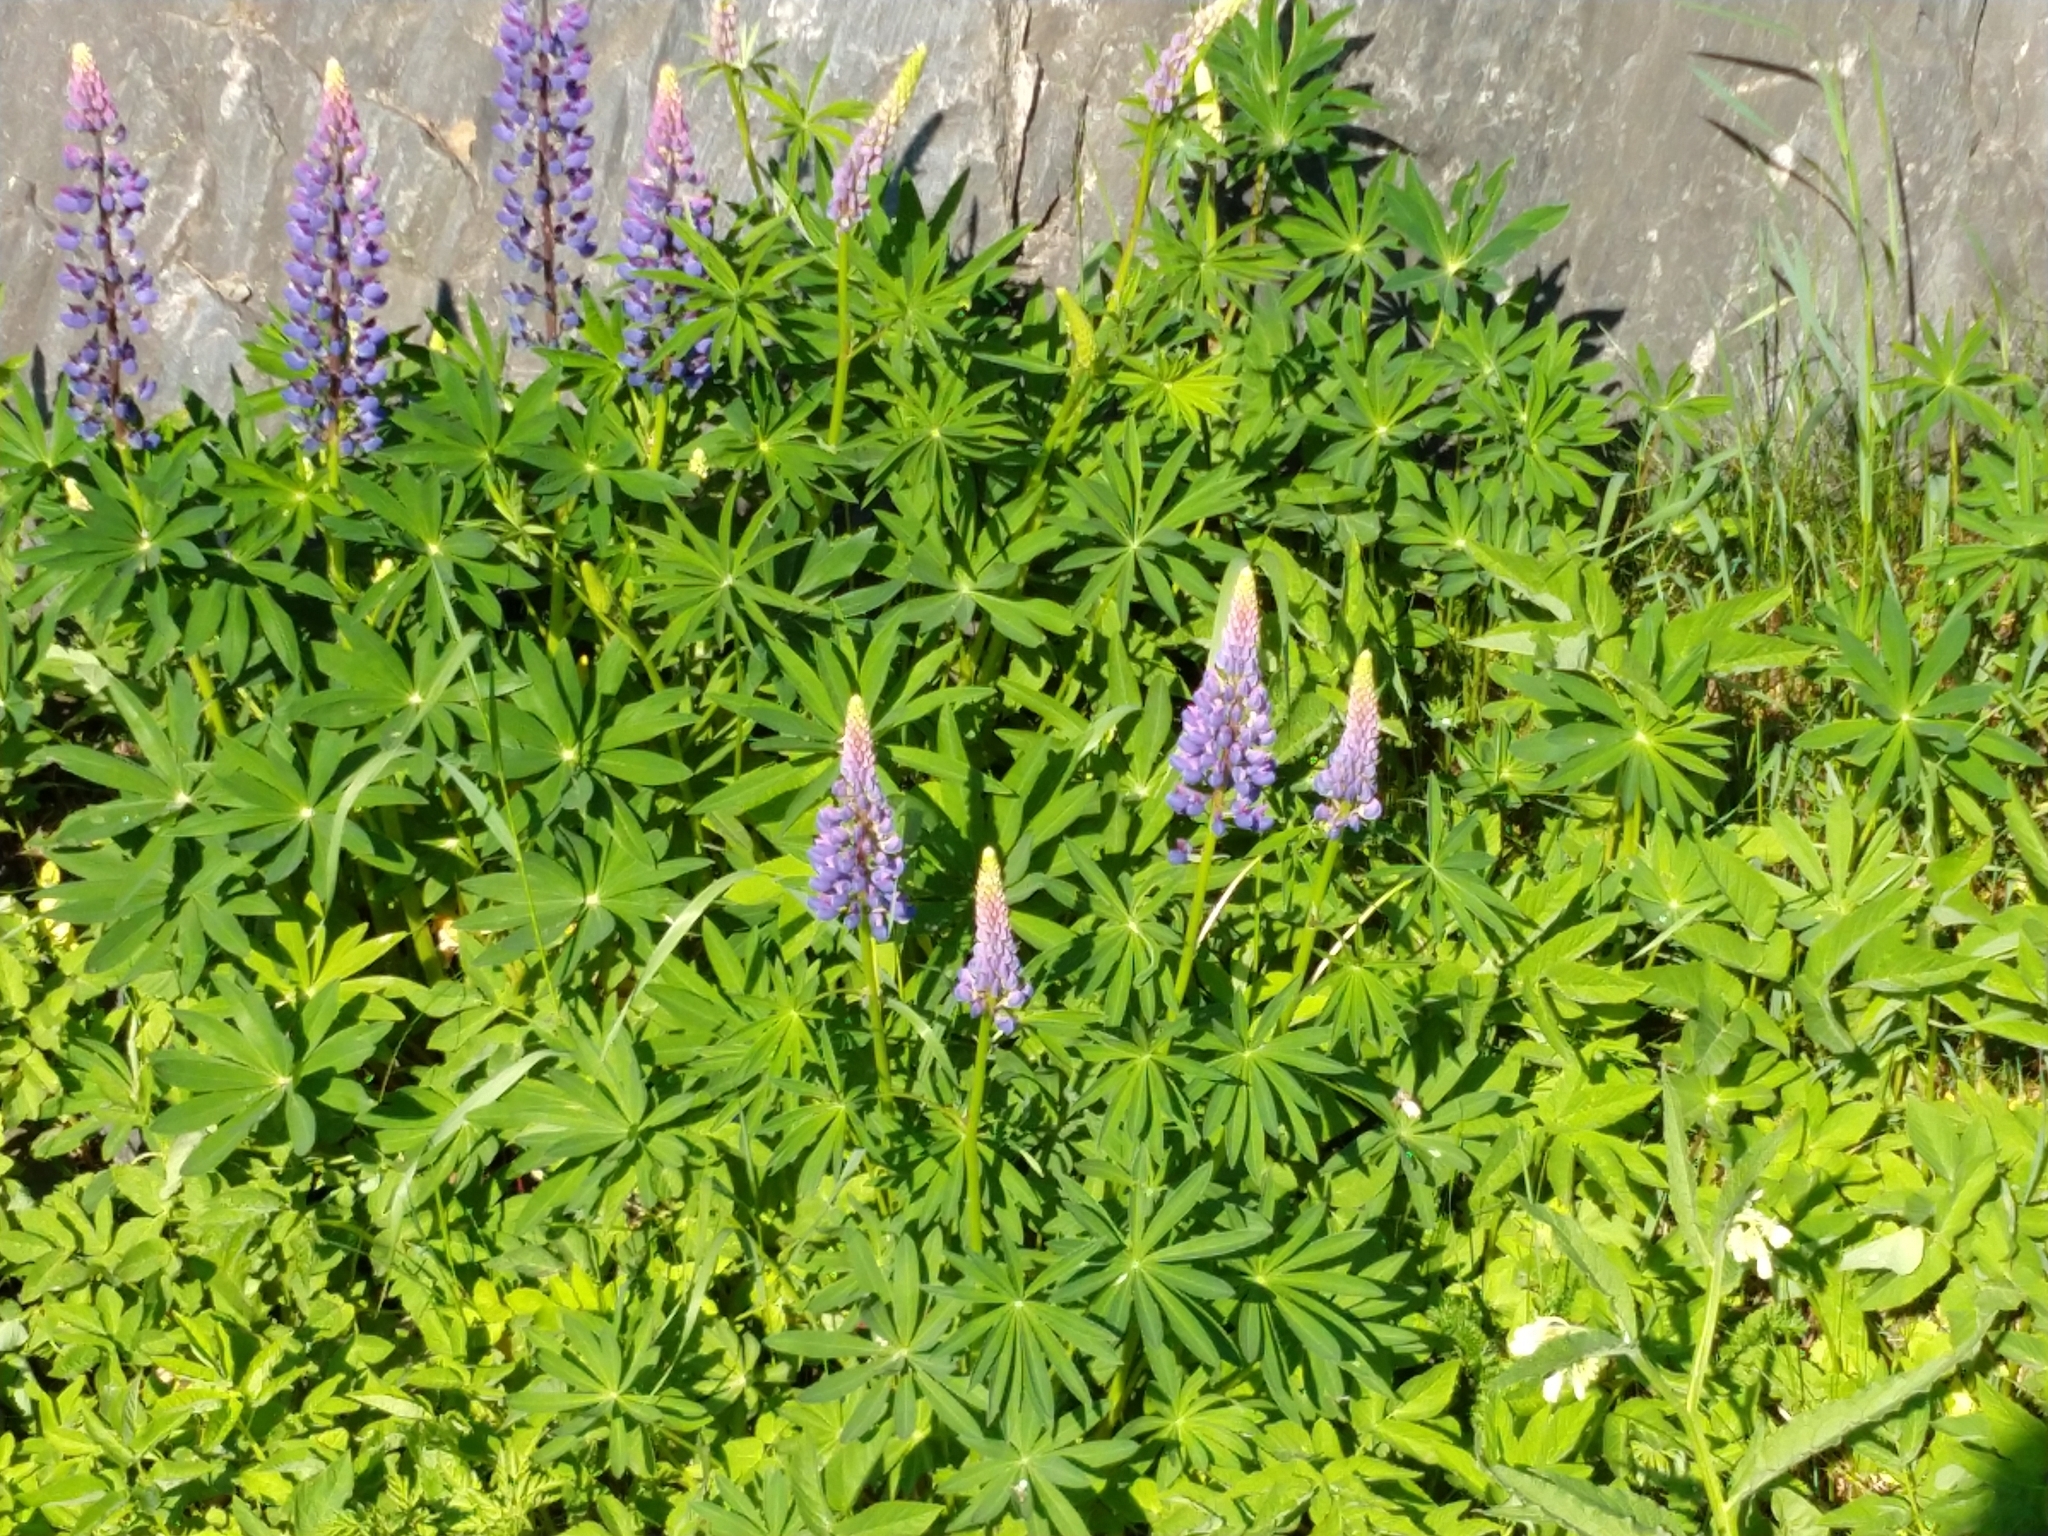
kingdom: Plantae
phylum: Tracheophyta
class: Magnoliopsida
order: Fabales
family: Fabaceae
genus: Lupinus
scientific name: Lupinus polyphyllus
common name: Garden lupin
